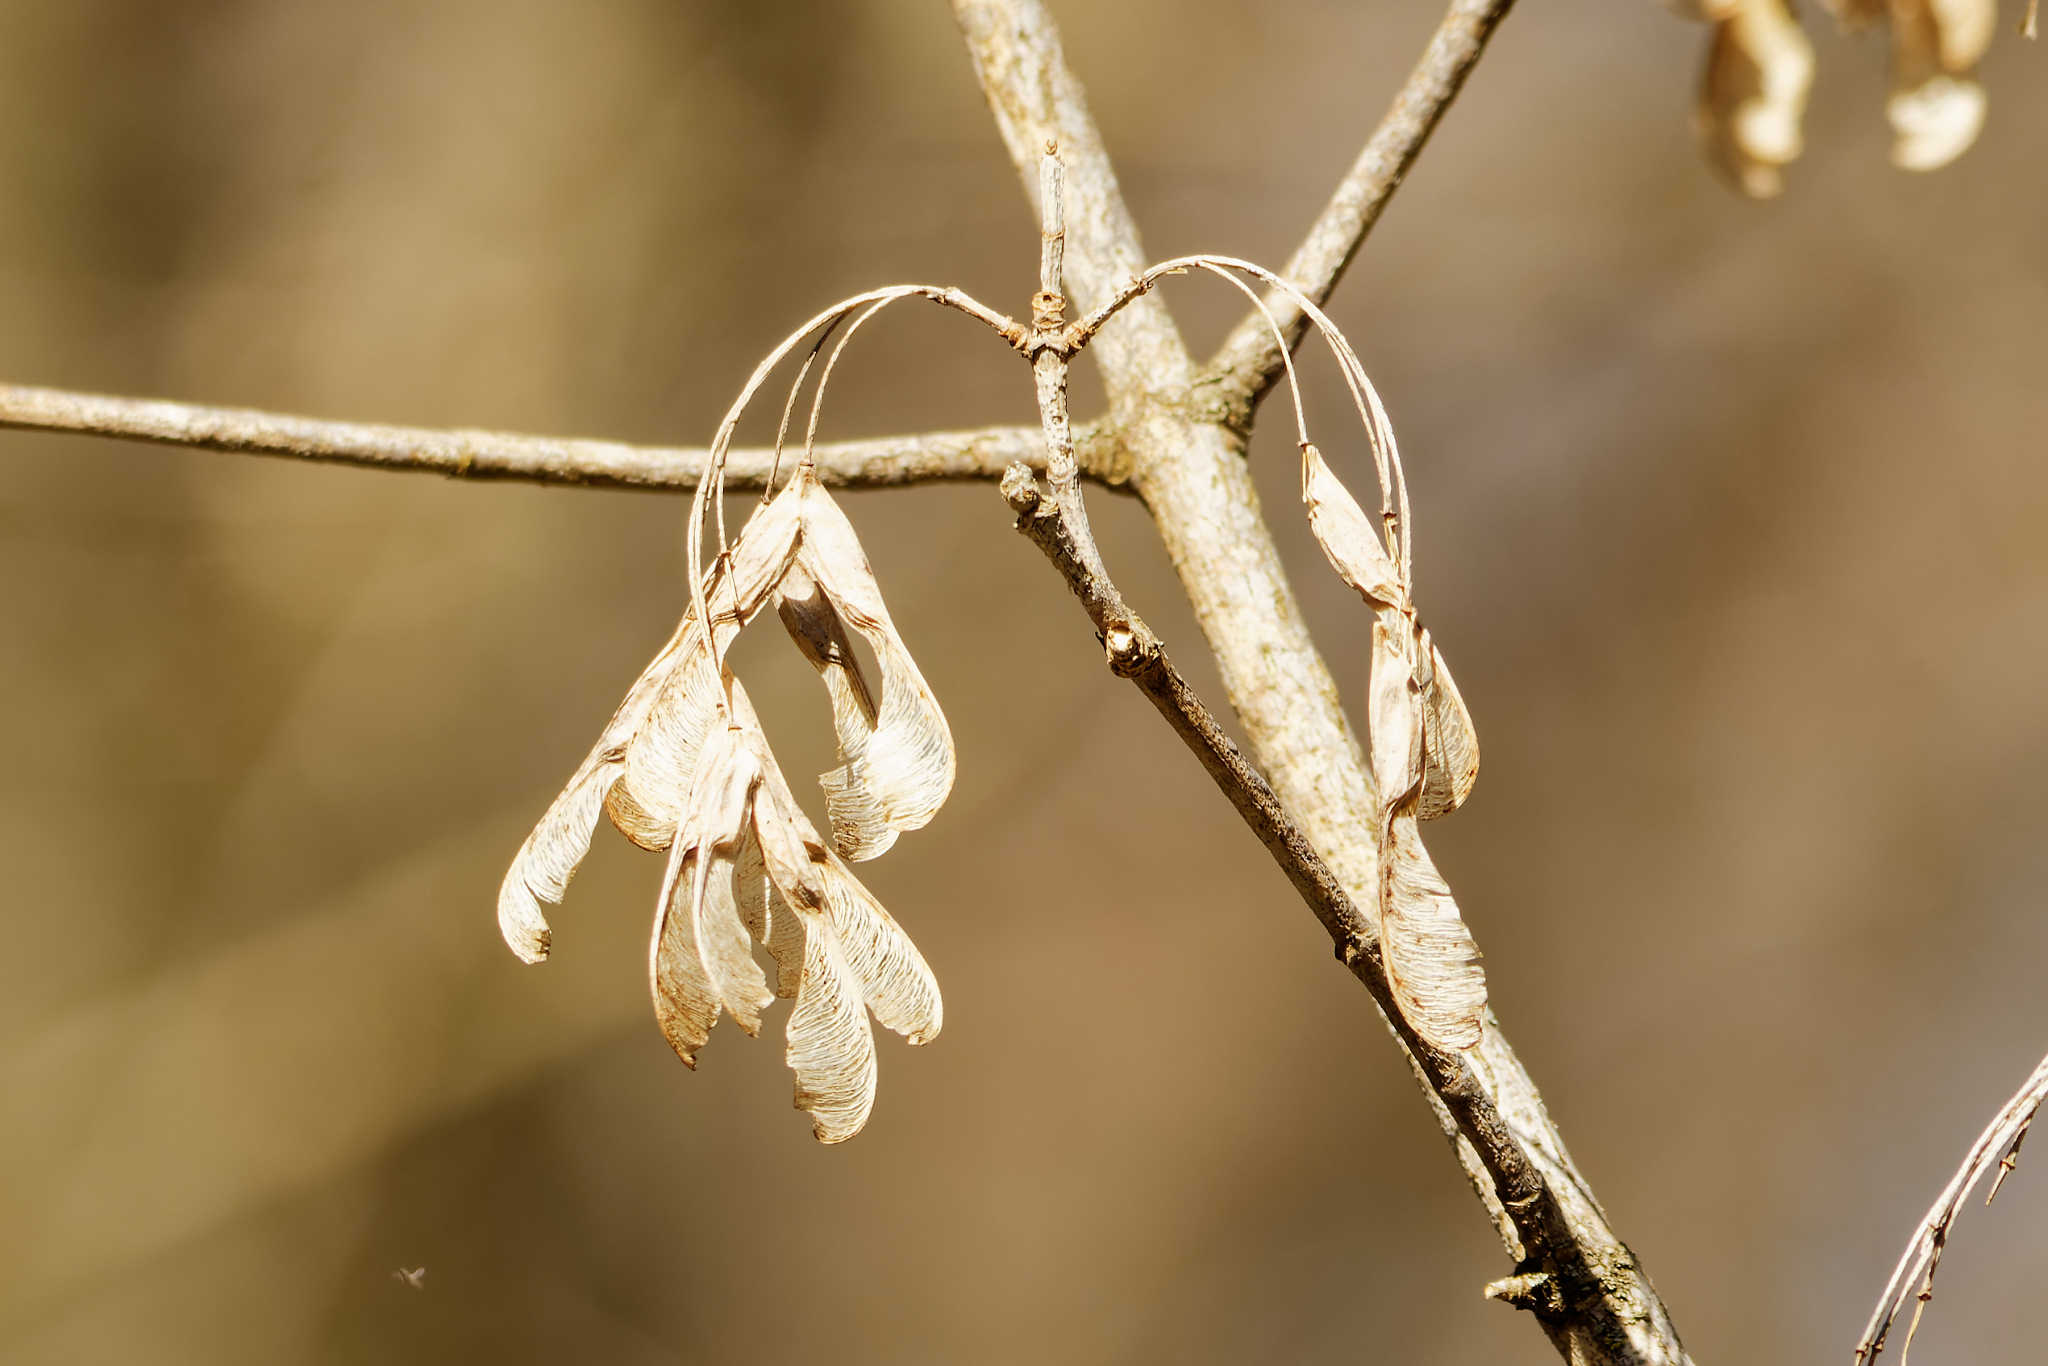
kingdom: Plantae
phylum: Tracheophyta
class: Magnoliopsida
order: Sapindales
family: Sapindaceae
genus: Acer
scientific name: Acer negundo
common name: Ashleaf maple
